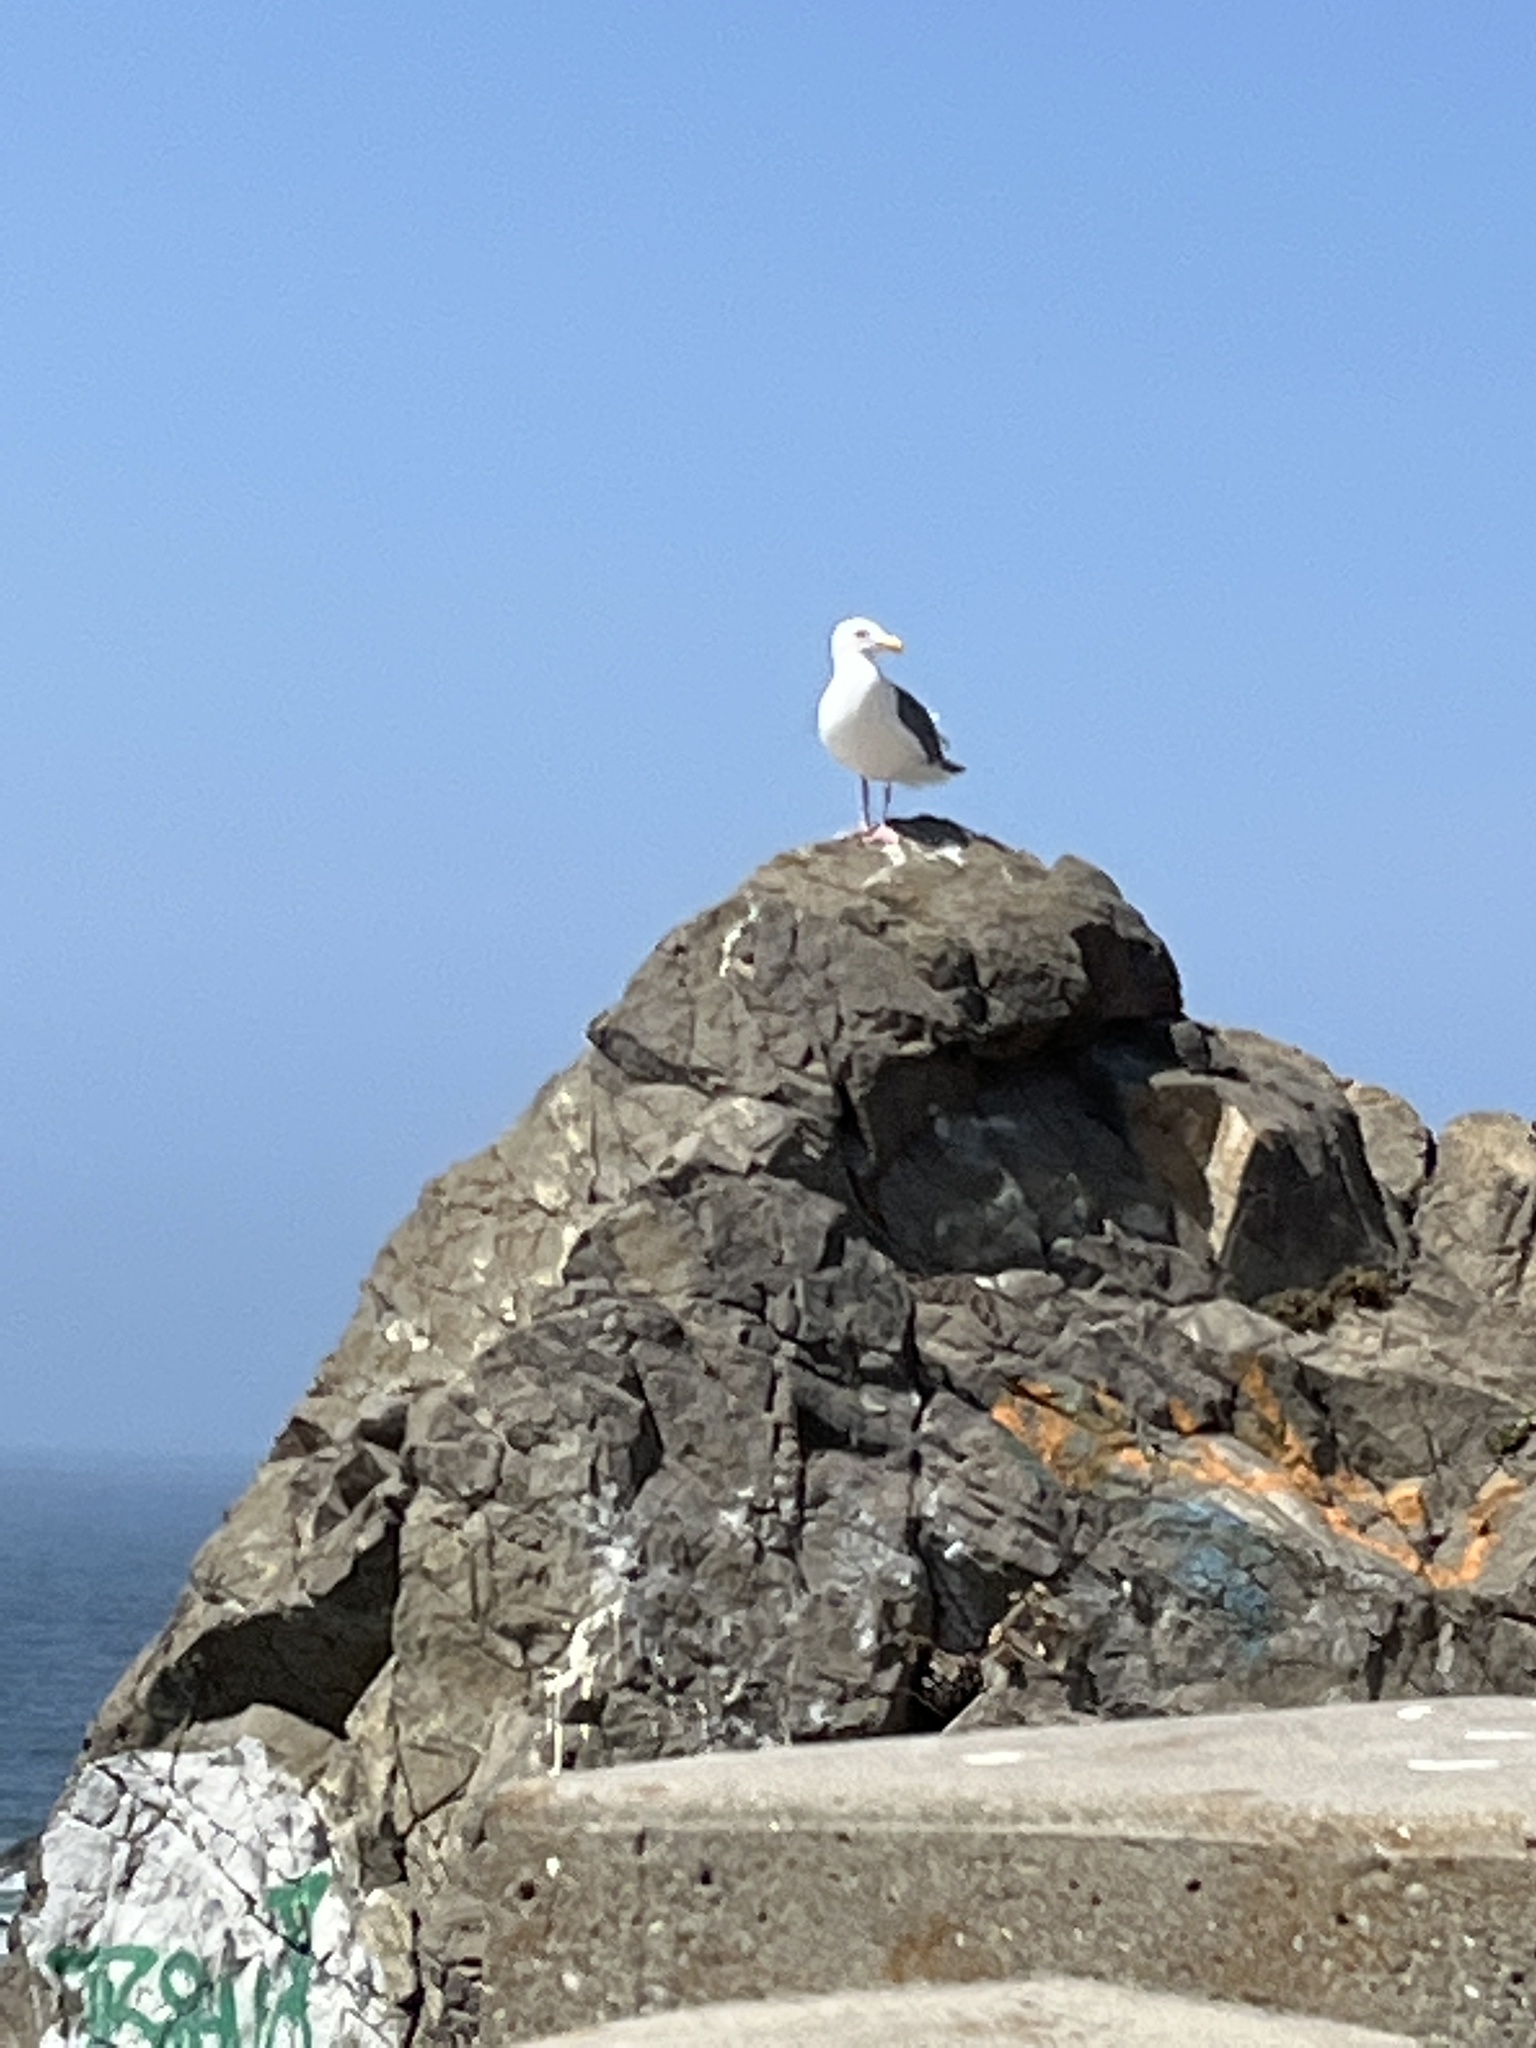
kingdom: Animalia
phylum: Chordata
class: Aves
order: Charadriiformes
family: Laridae
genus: Larus
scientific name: Larus occidentalis
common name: Western gull
